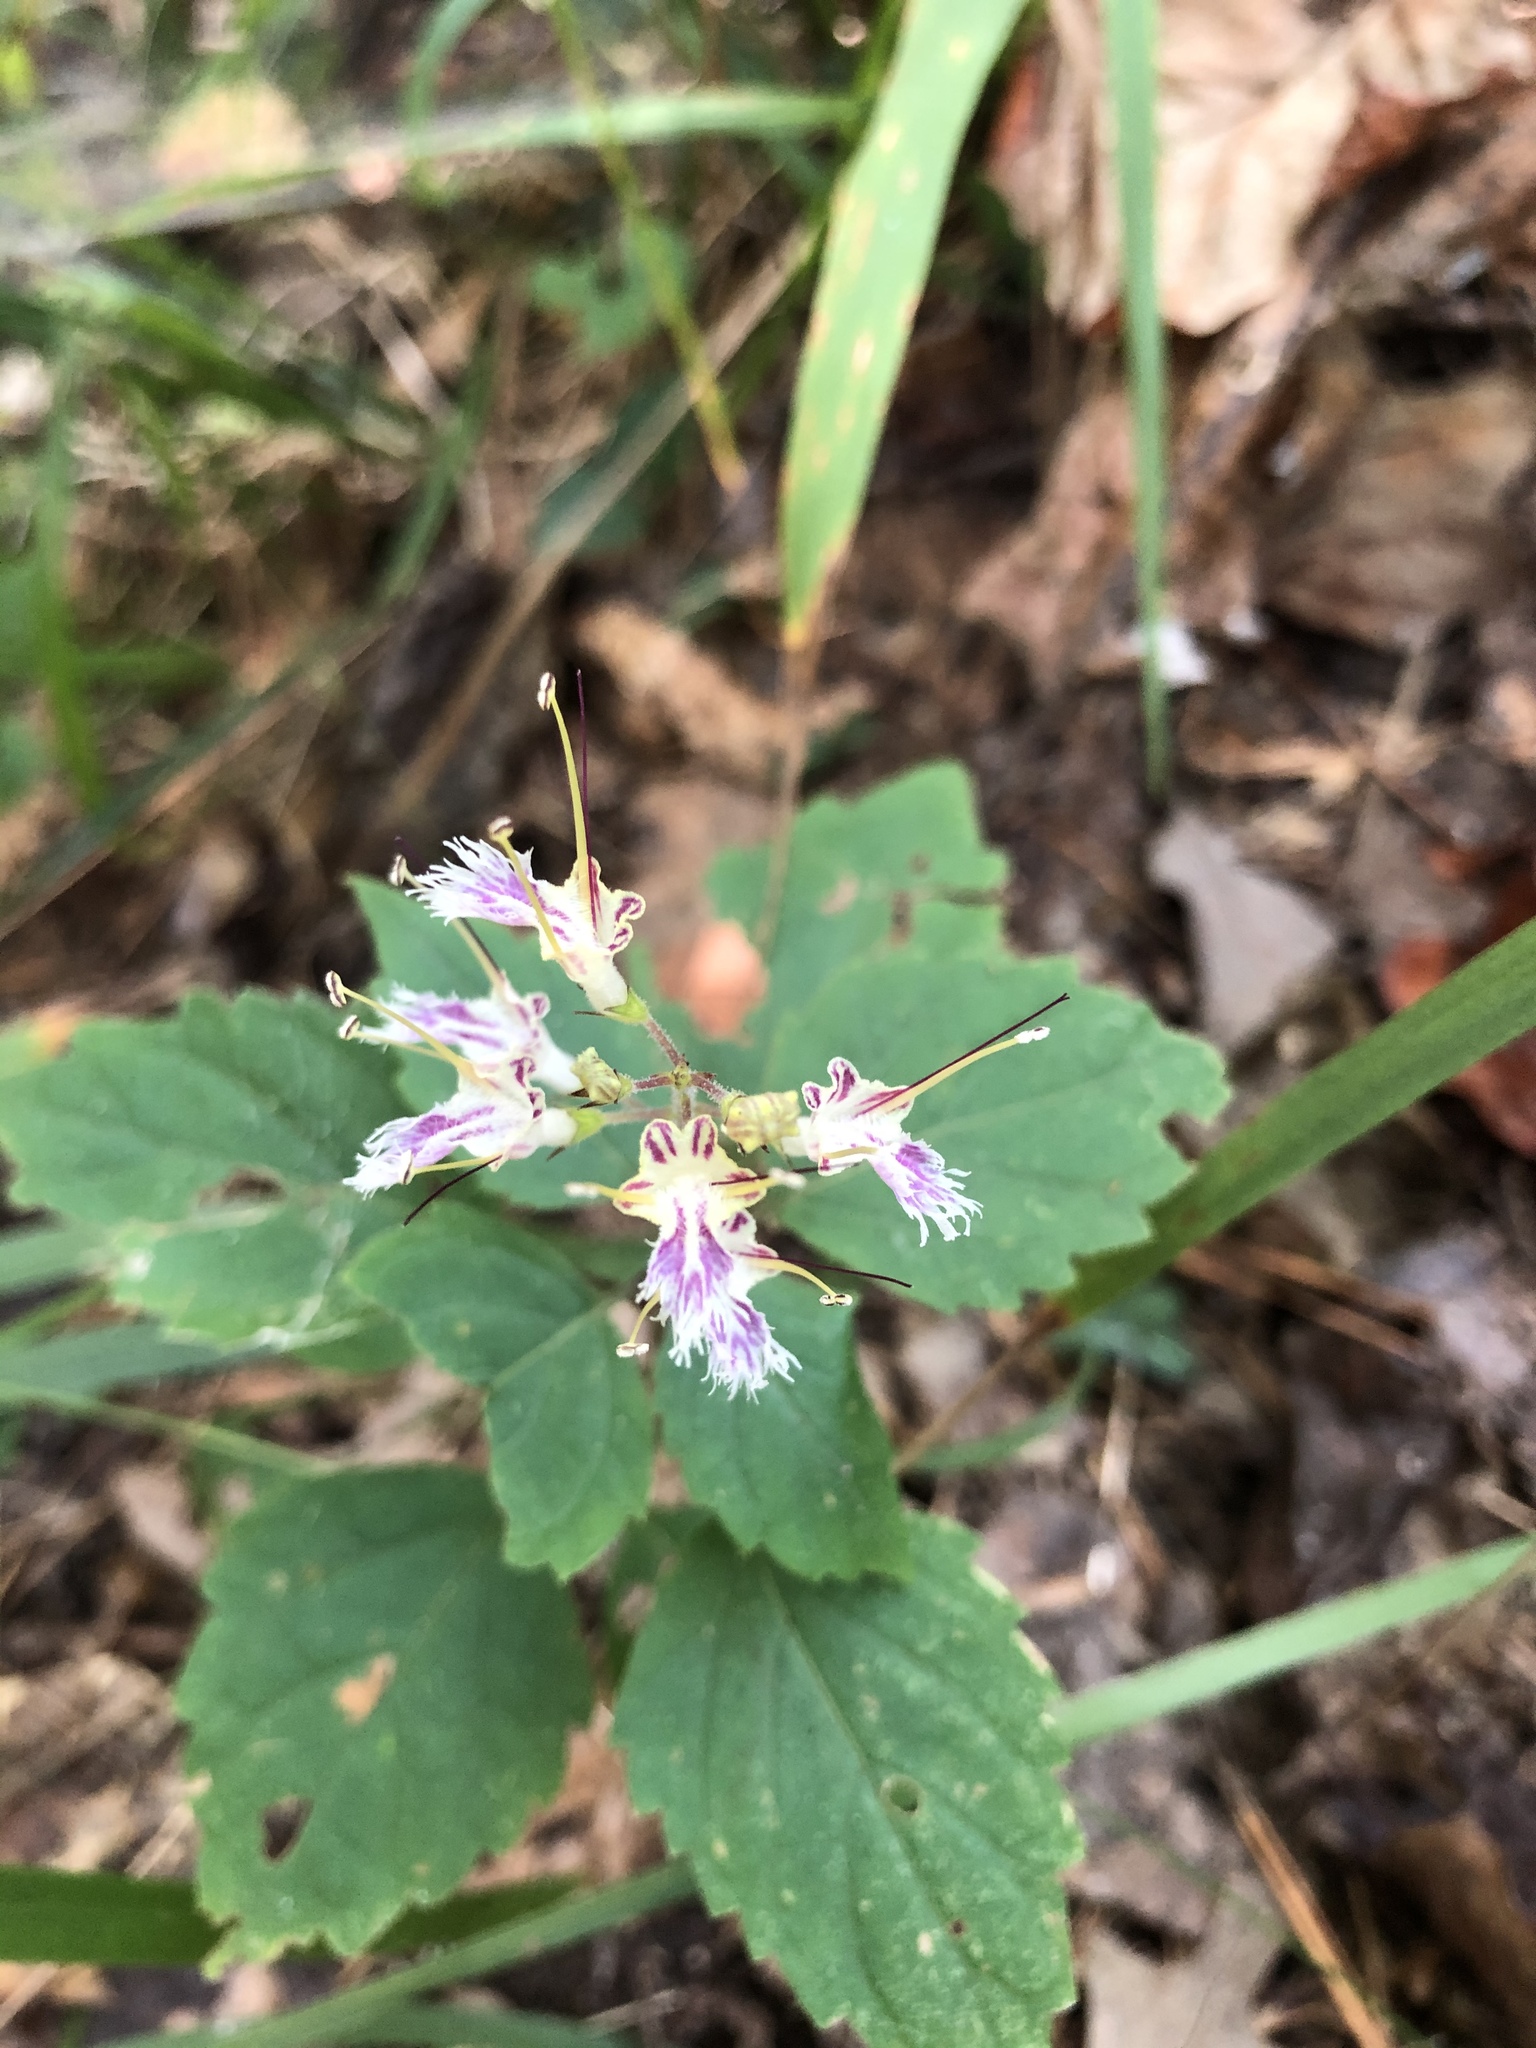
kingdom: Plantae
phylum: Tracheophyta
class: Magnoliopsida
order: Lamiales
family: Lamiaceae
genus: Collinsonia
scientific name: Collinsonia canadensis
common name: Northern horsebalm
